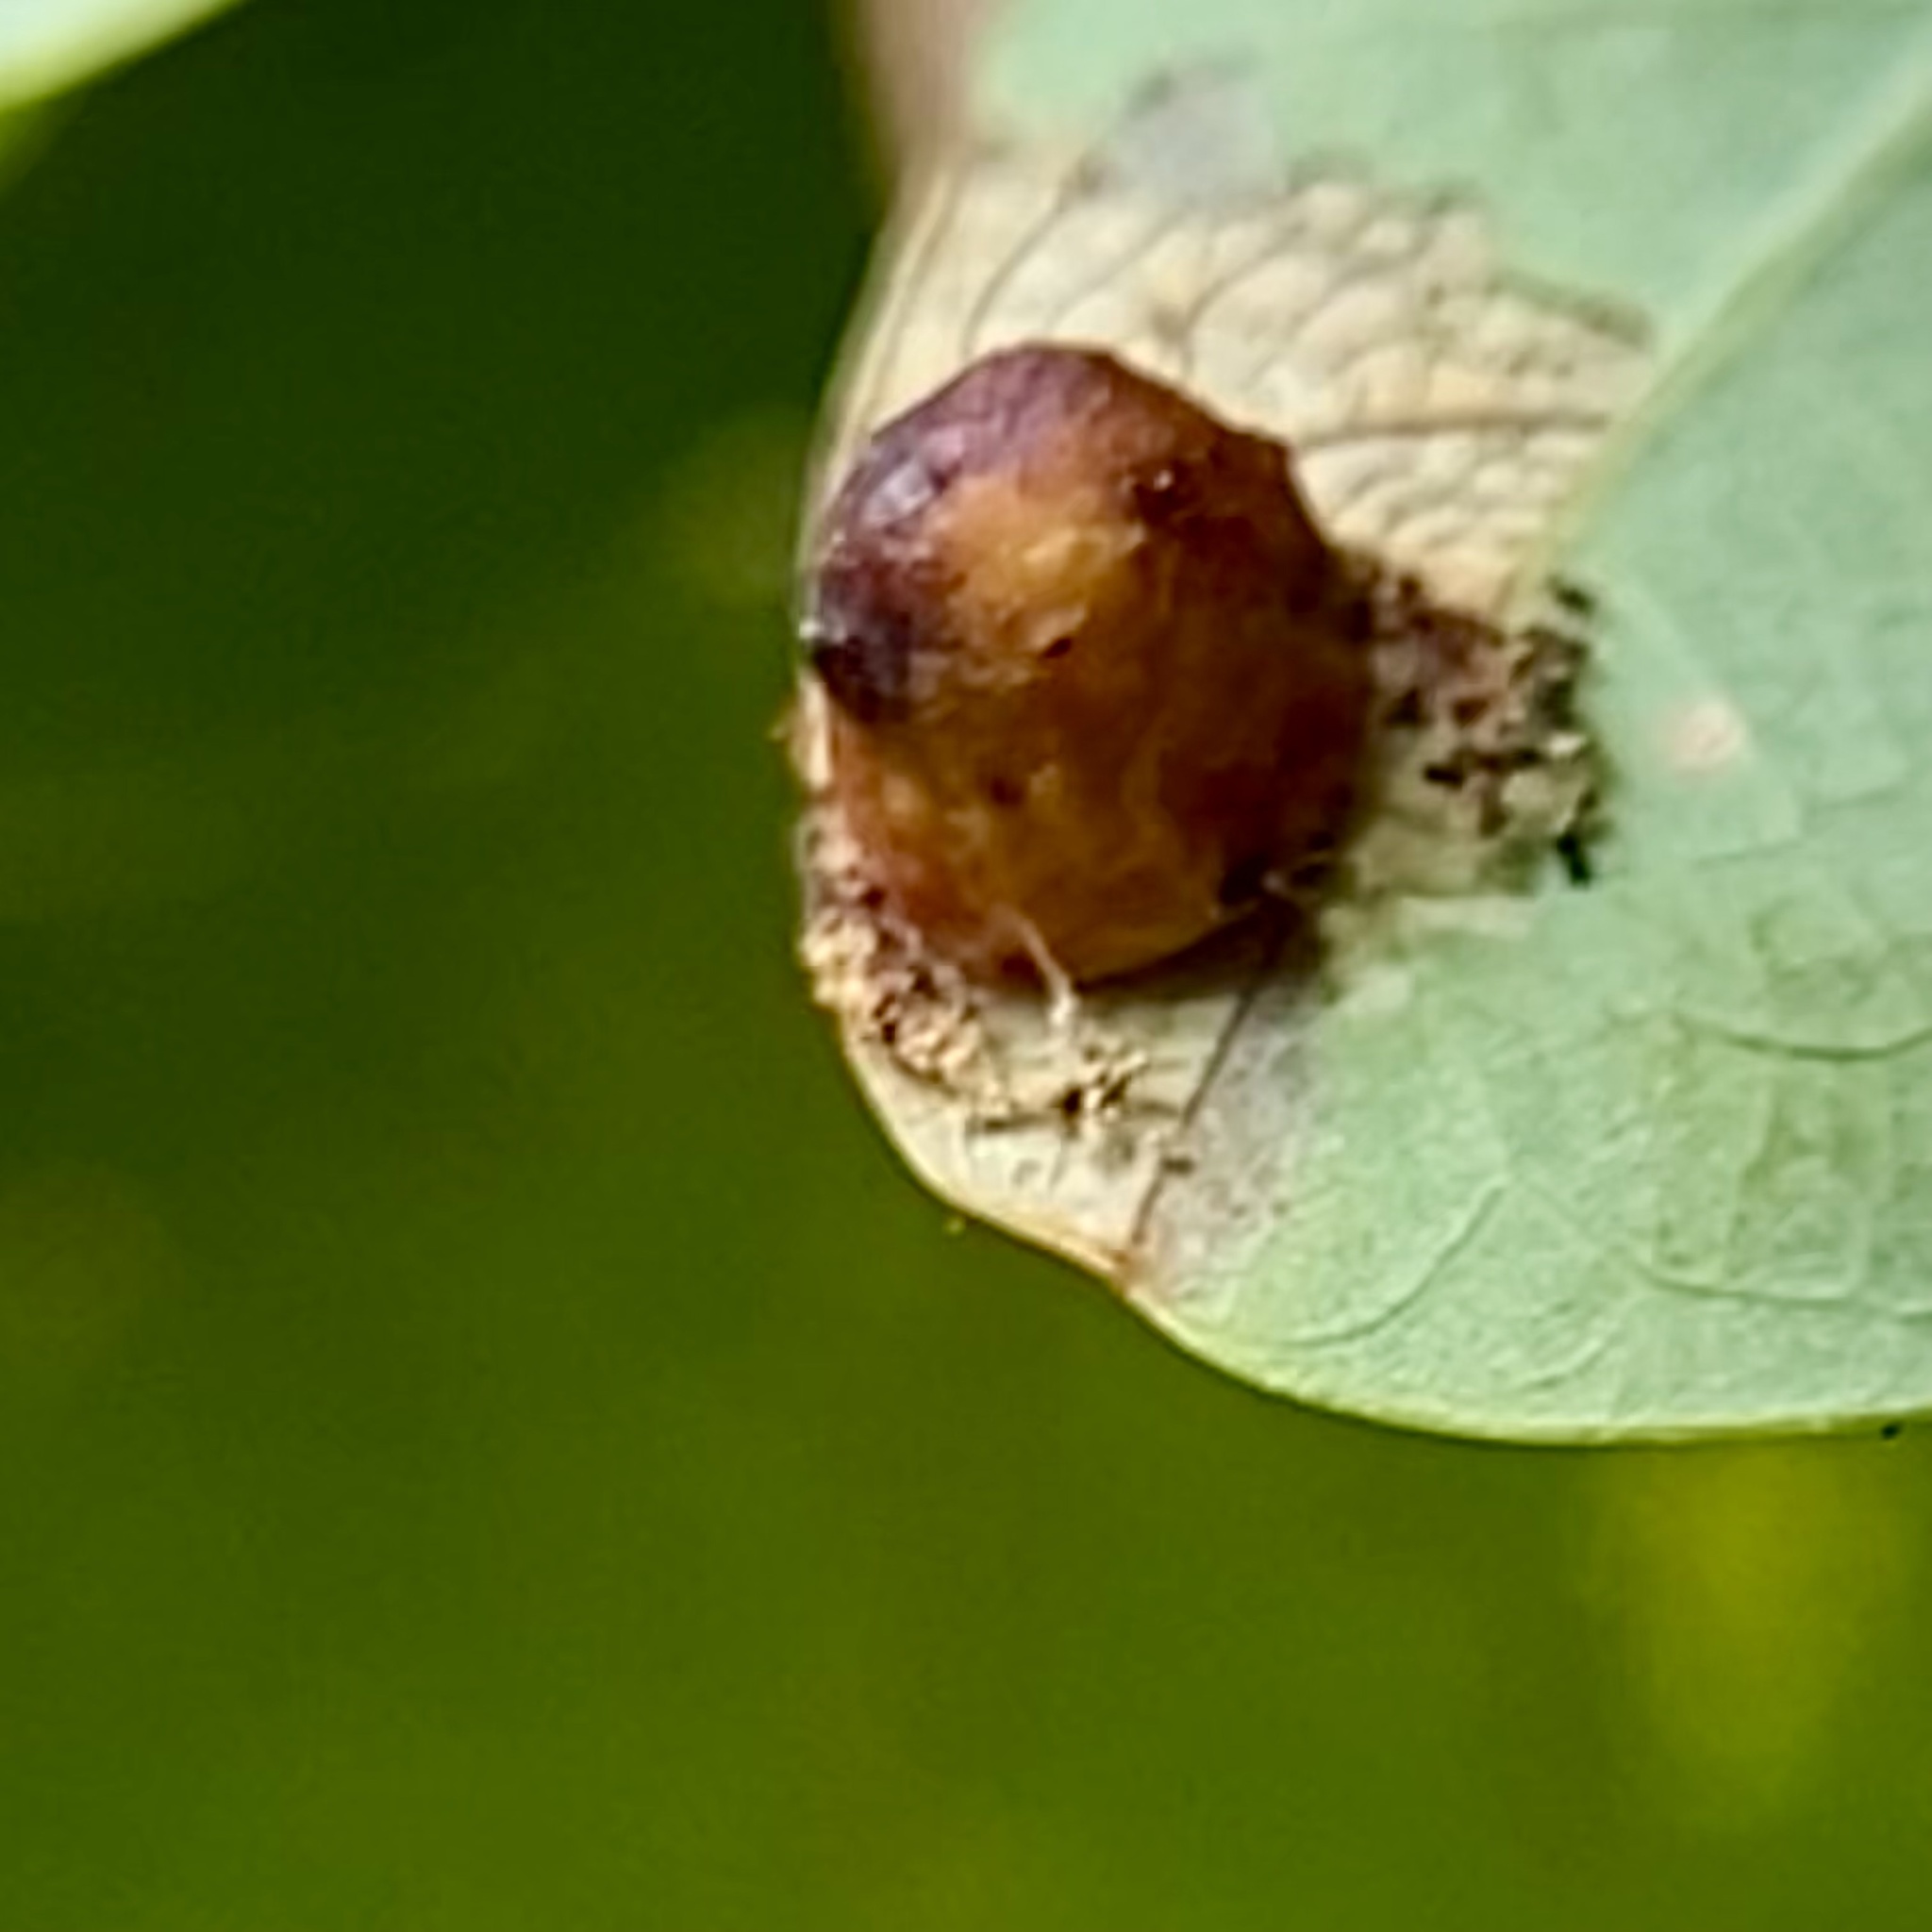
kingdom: Animalia
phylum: Arthropoda
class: Insecta
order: Hymenoptera
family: Cynipidae
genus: Andricus
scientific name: Andricus
